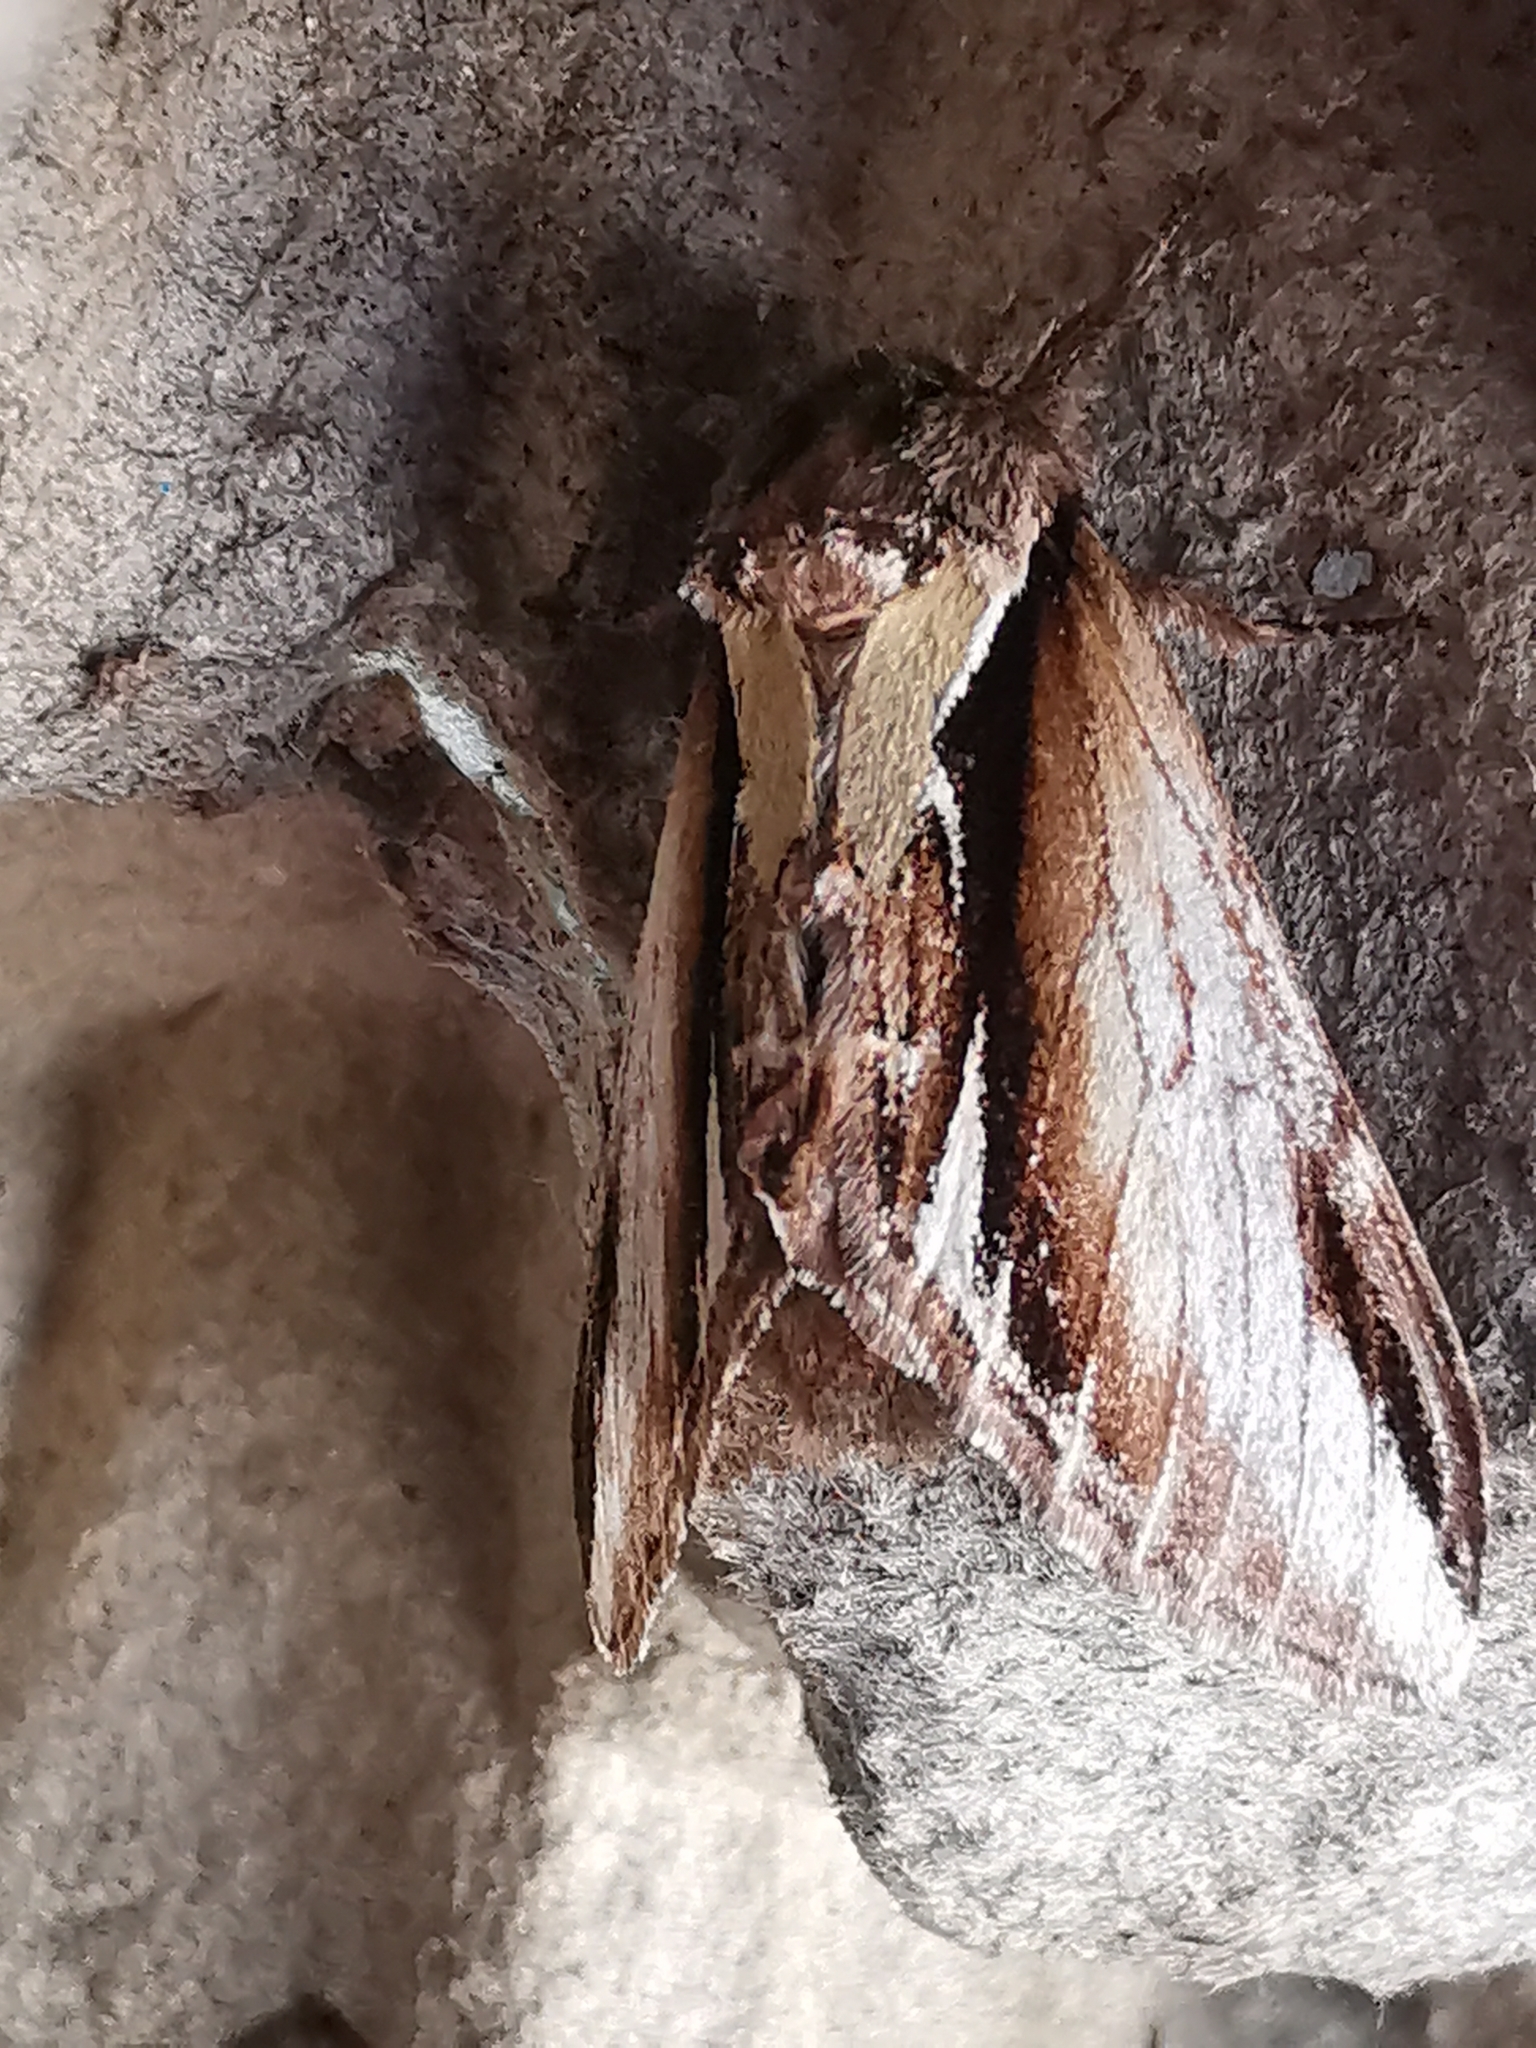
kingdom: Animalia
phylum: Arthropoda
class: Insecta
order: Lepidoptera
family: Notodontidae
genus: Pheosia
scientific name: Pheosia gnoma
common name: Lesser swallow prominent
